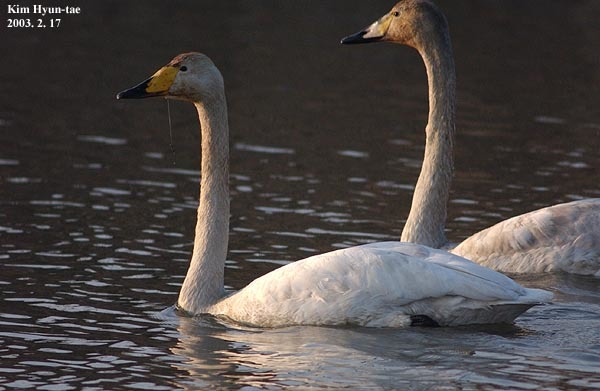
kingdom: Animalia
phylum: Chordata
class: Aves
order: Anseriformes
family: Anatidae
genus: Cygnus
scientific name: Cygnus cygnus
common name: Whooper swan
